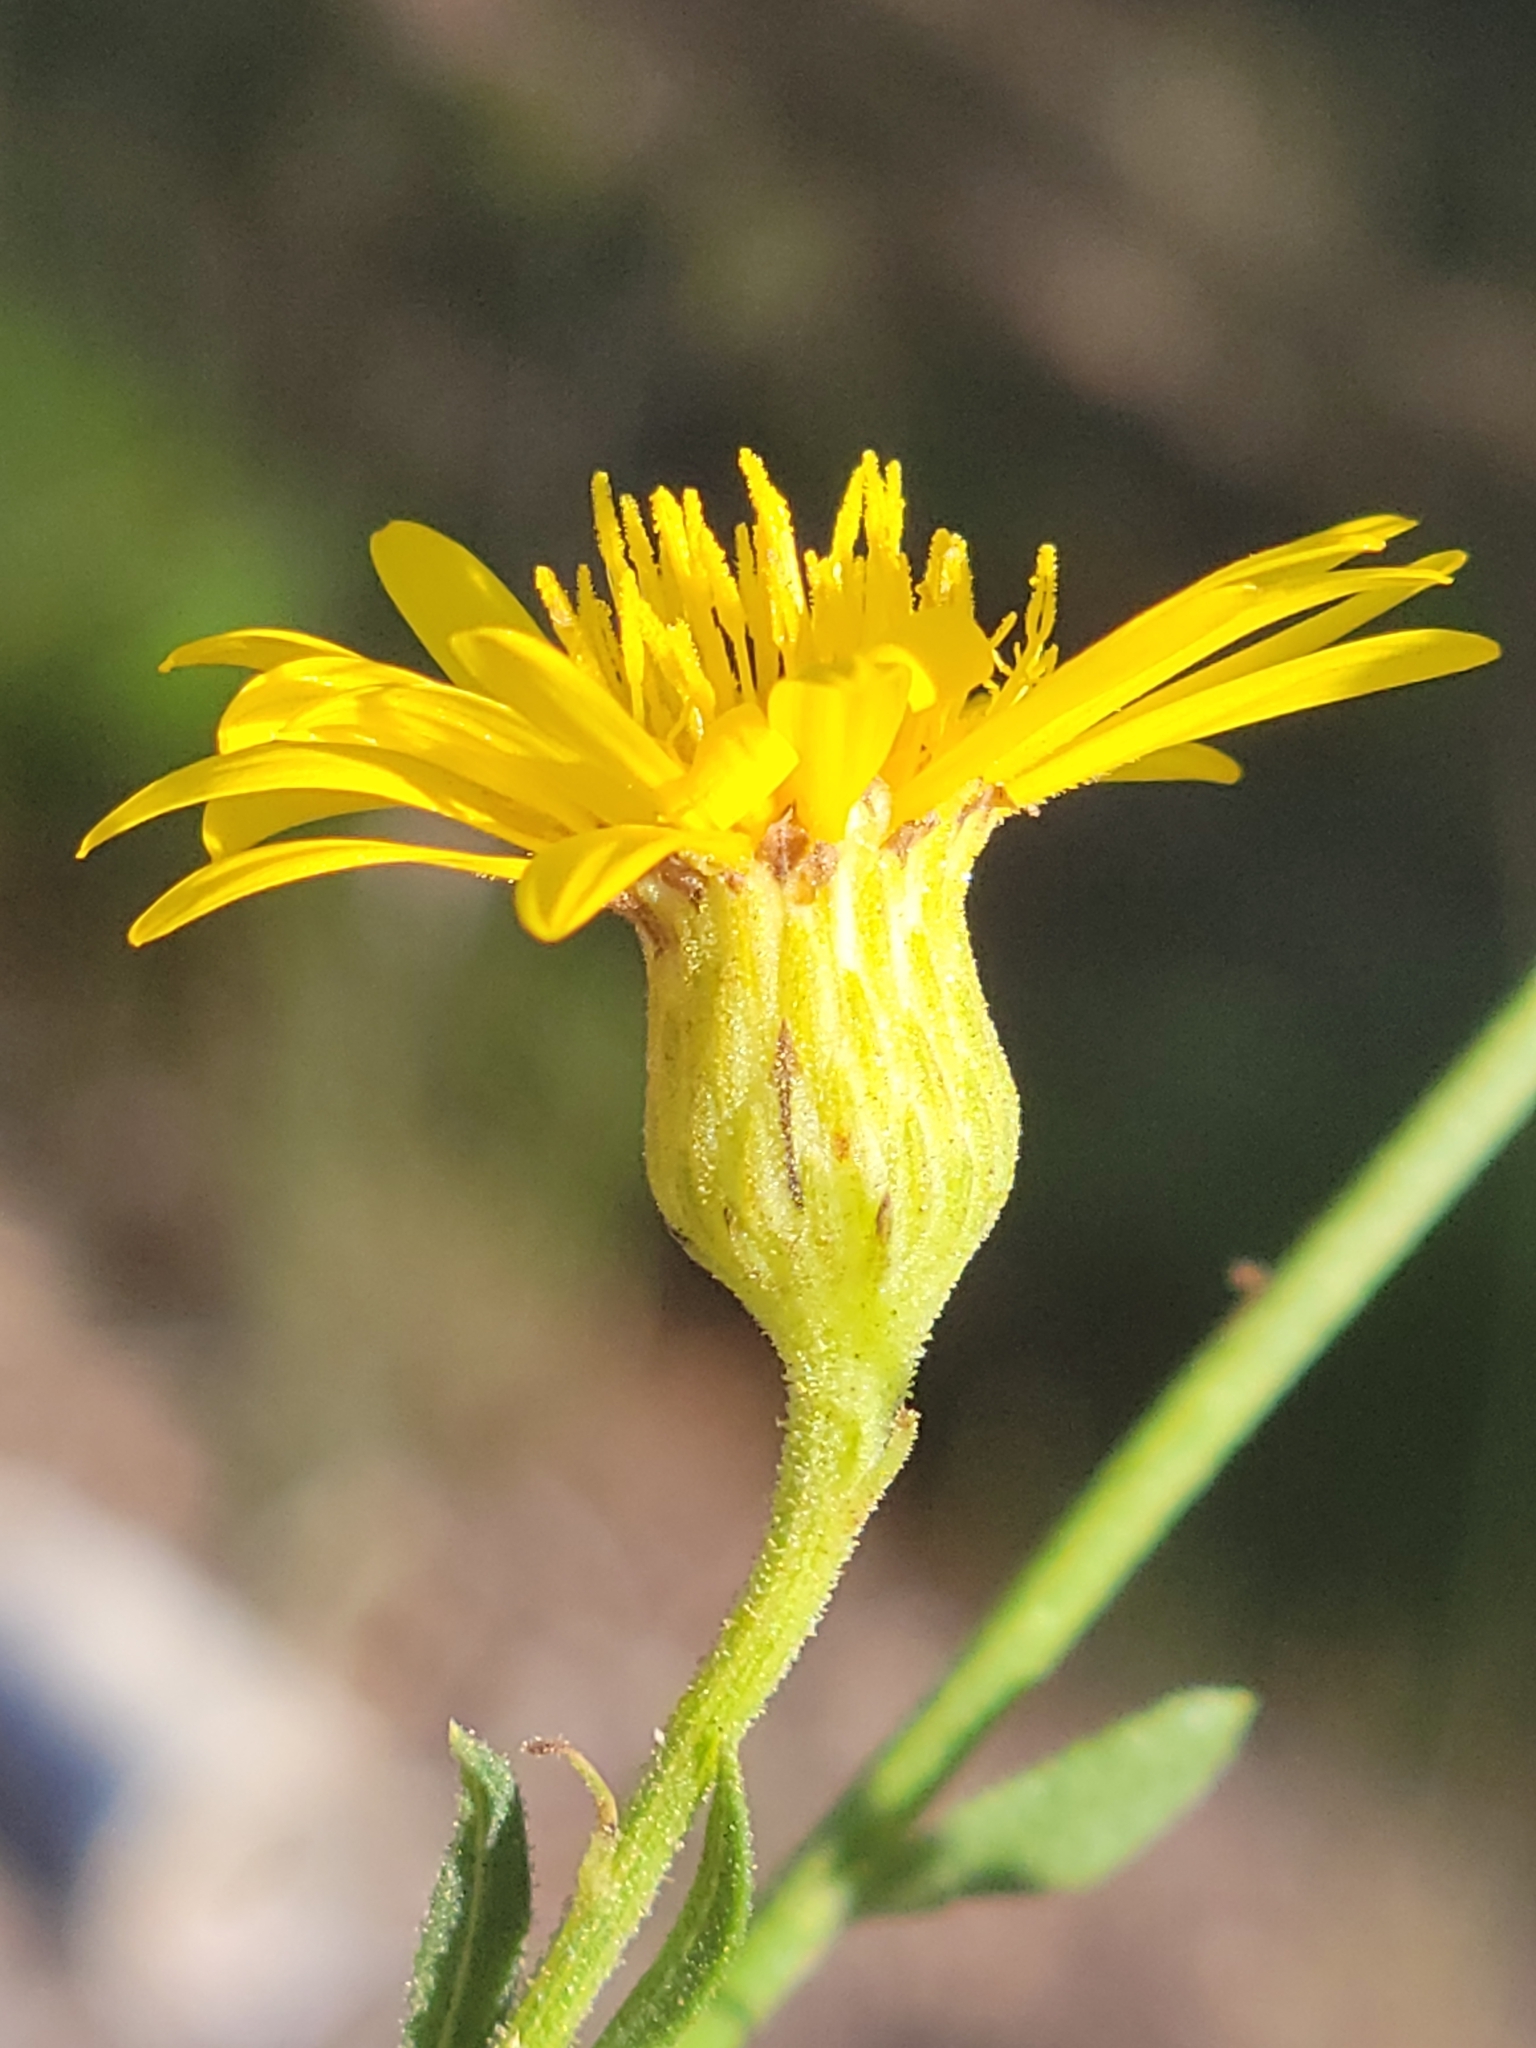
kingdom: Plantae
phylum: Tracheophyta
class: Magnoliopsida
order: Asterales
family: Asteraceae
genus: Chrysopsis
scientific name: Chrysopsis scabrella
